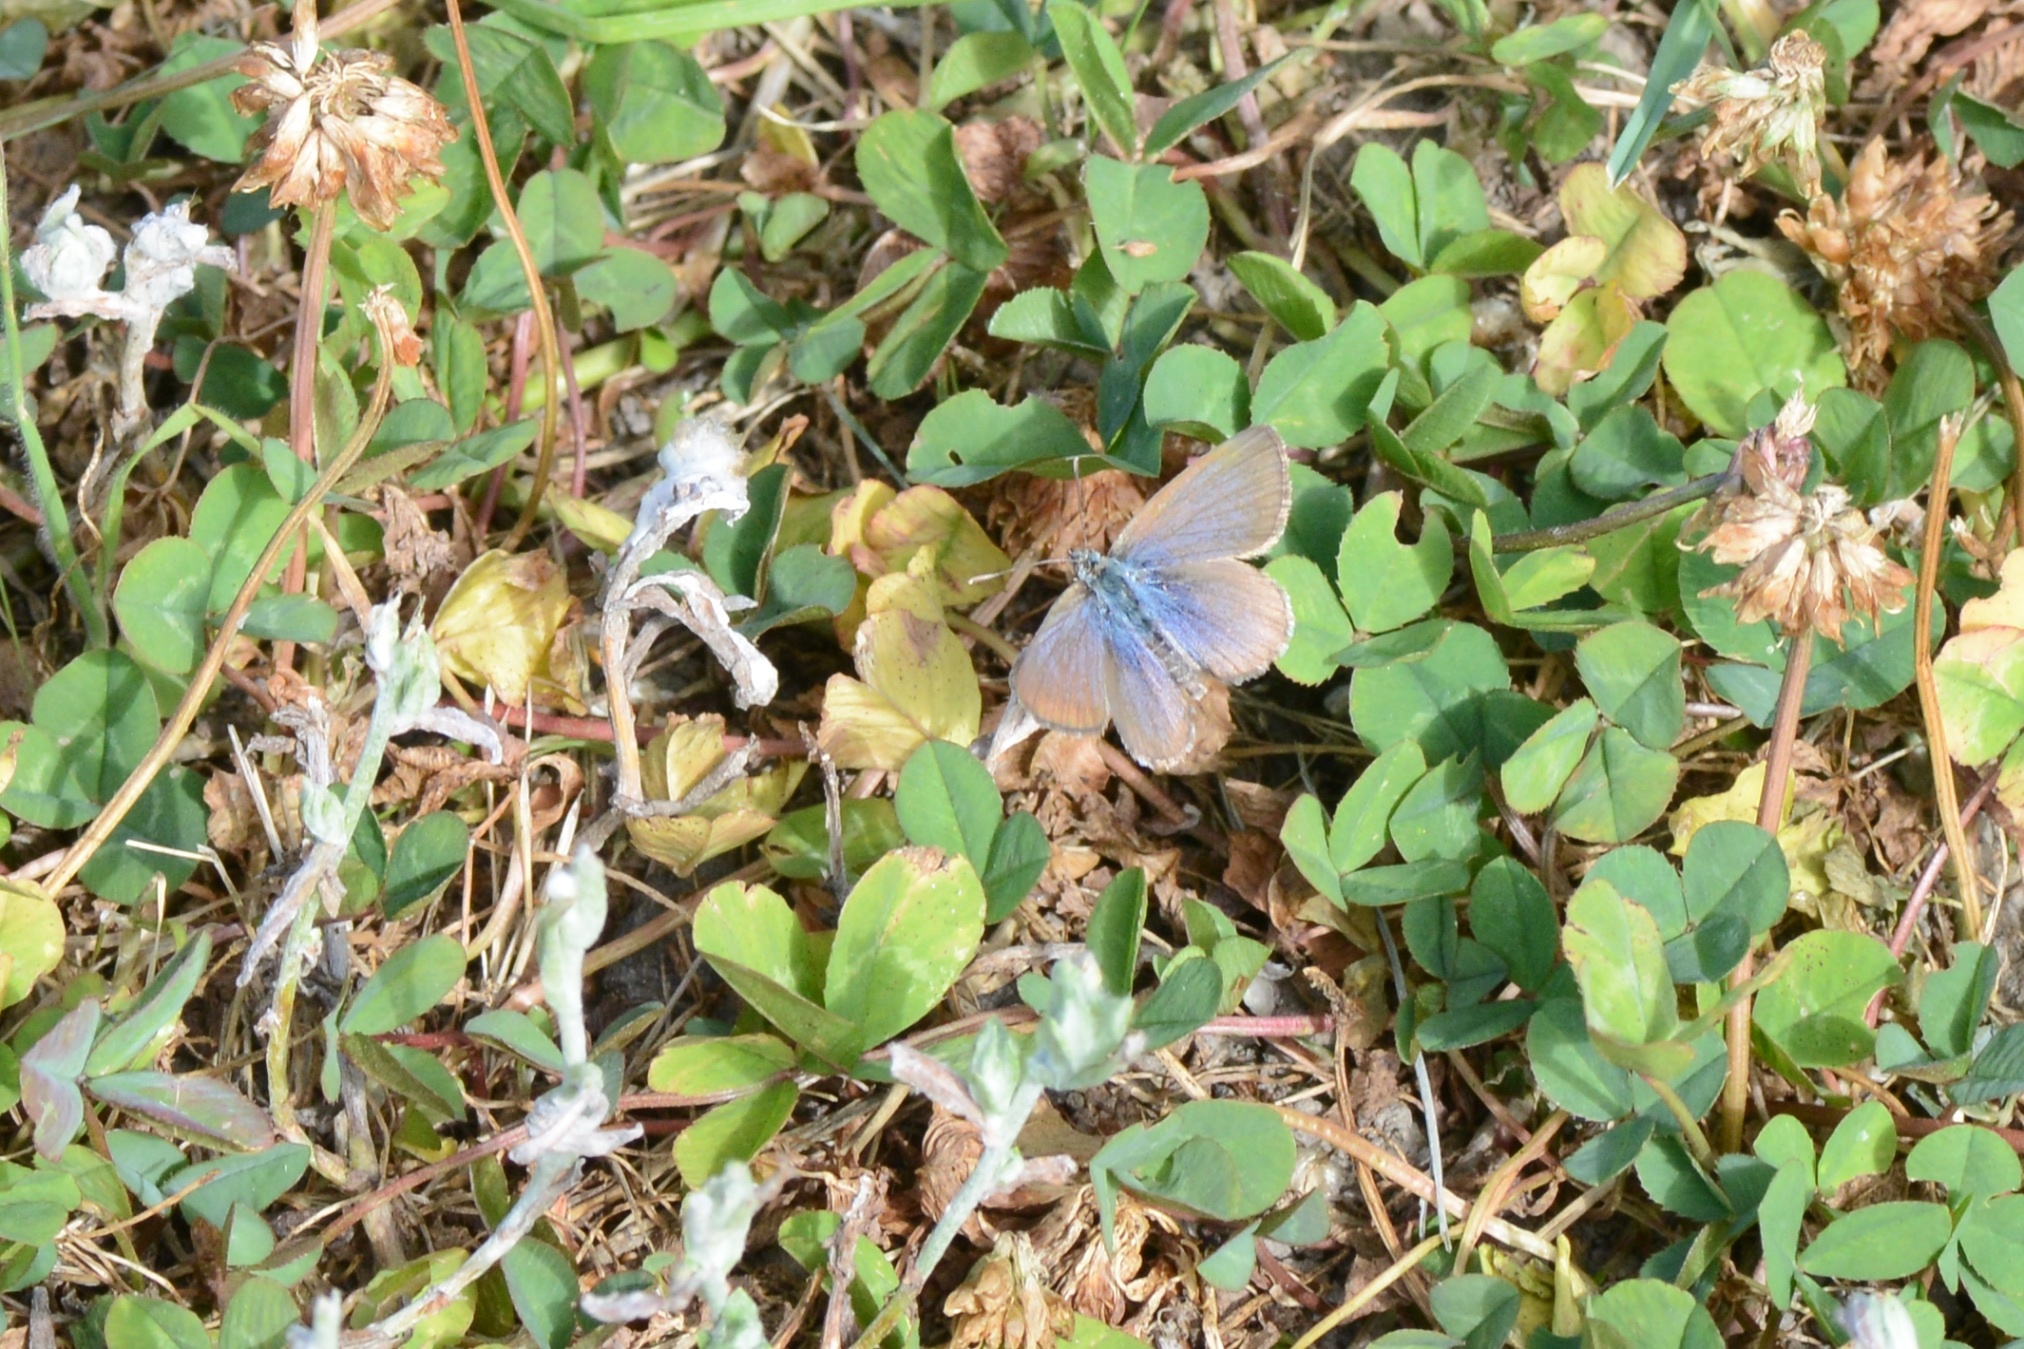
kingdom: Animalia
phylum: Arthropoda
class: Insecta
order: Lepidoptera
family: Lycaenidae
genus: Zizina
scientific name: Zizina oxleyi
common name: Southern blue
